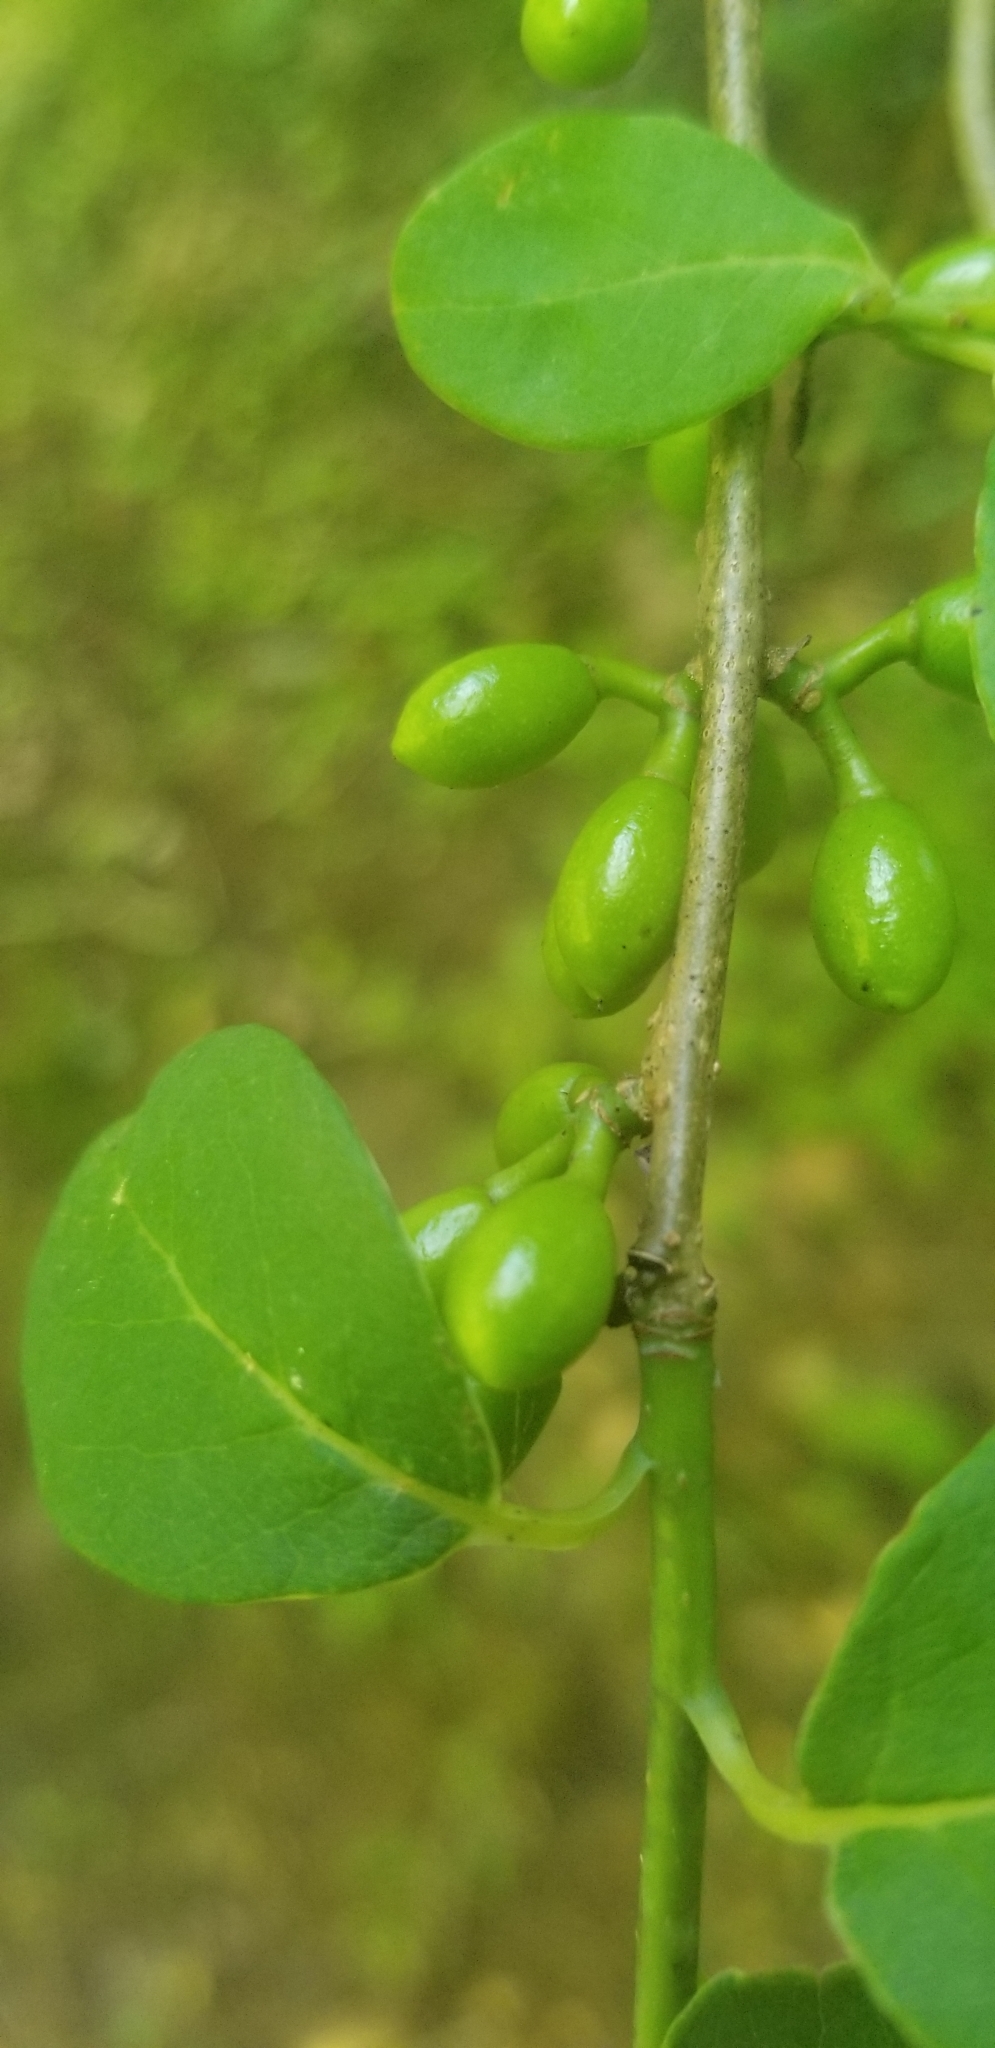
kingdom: Plantae
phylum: Tracheophyta
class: Magnoliopsida
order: Laurales
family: Lauraceae
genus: Lindera
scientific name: Lindera benzoin
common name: Spicebush
